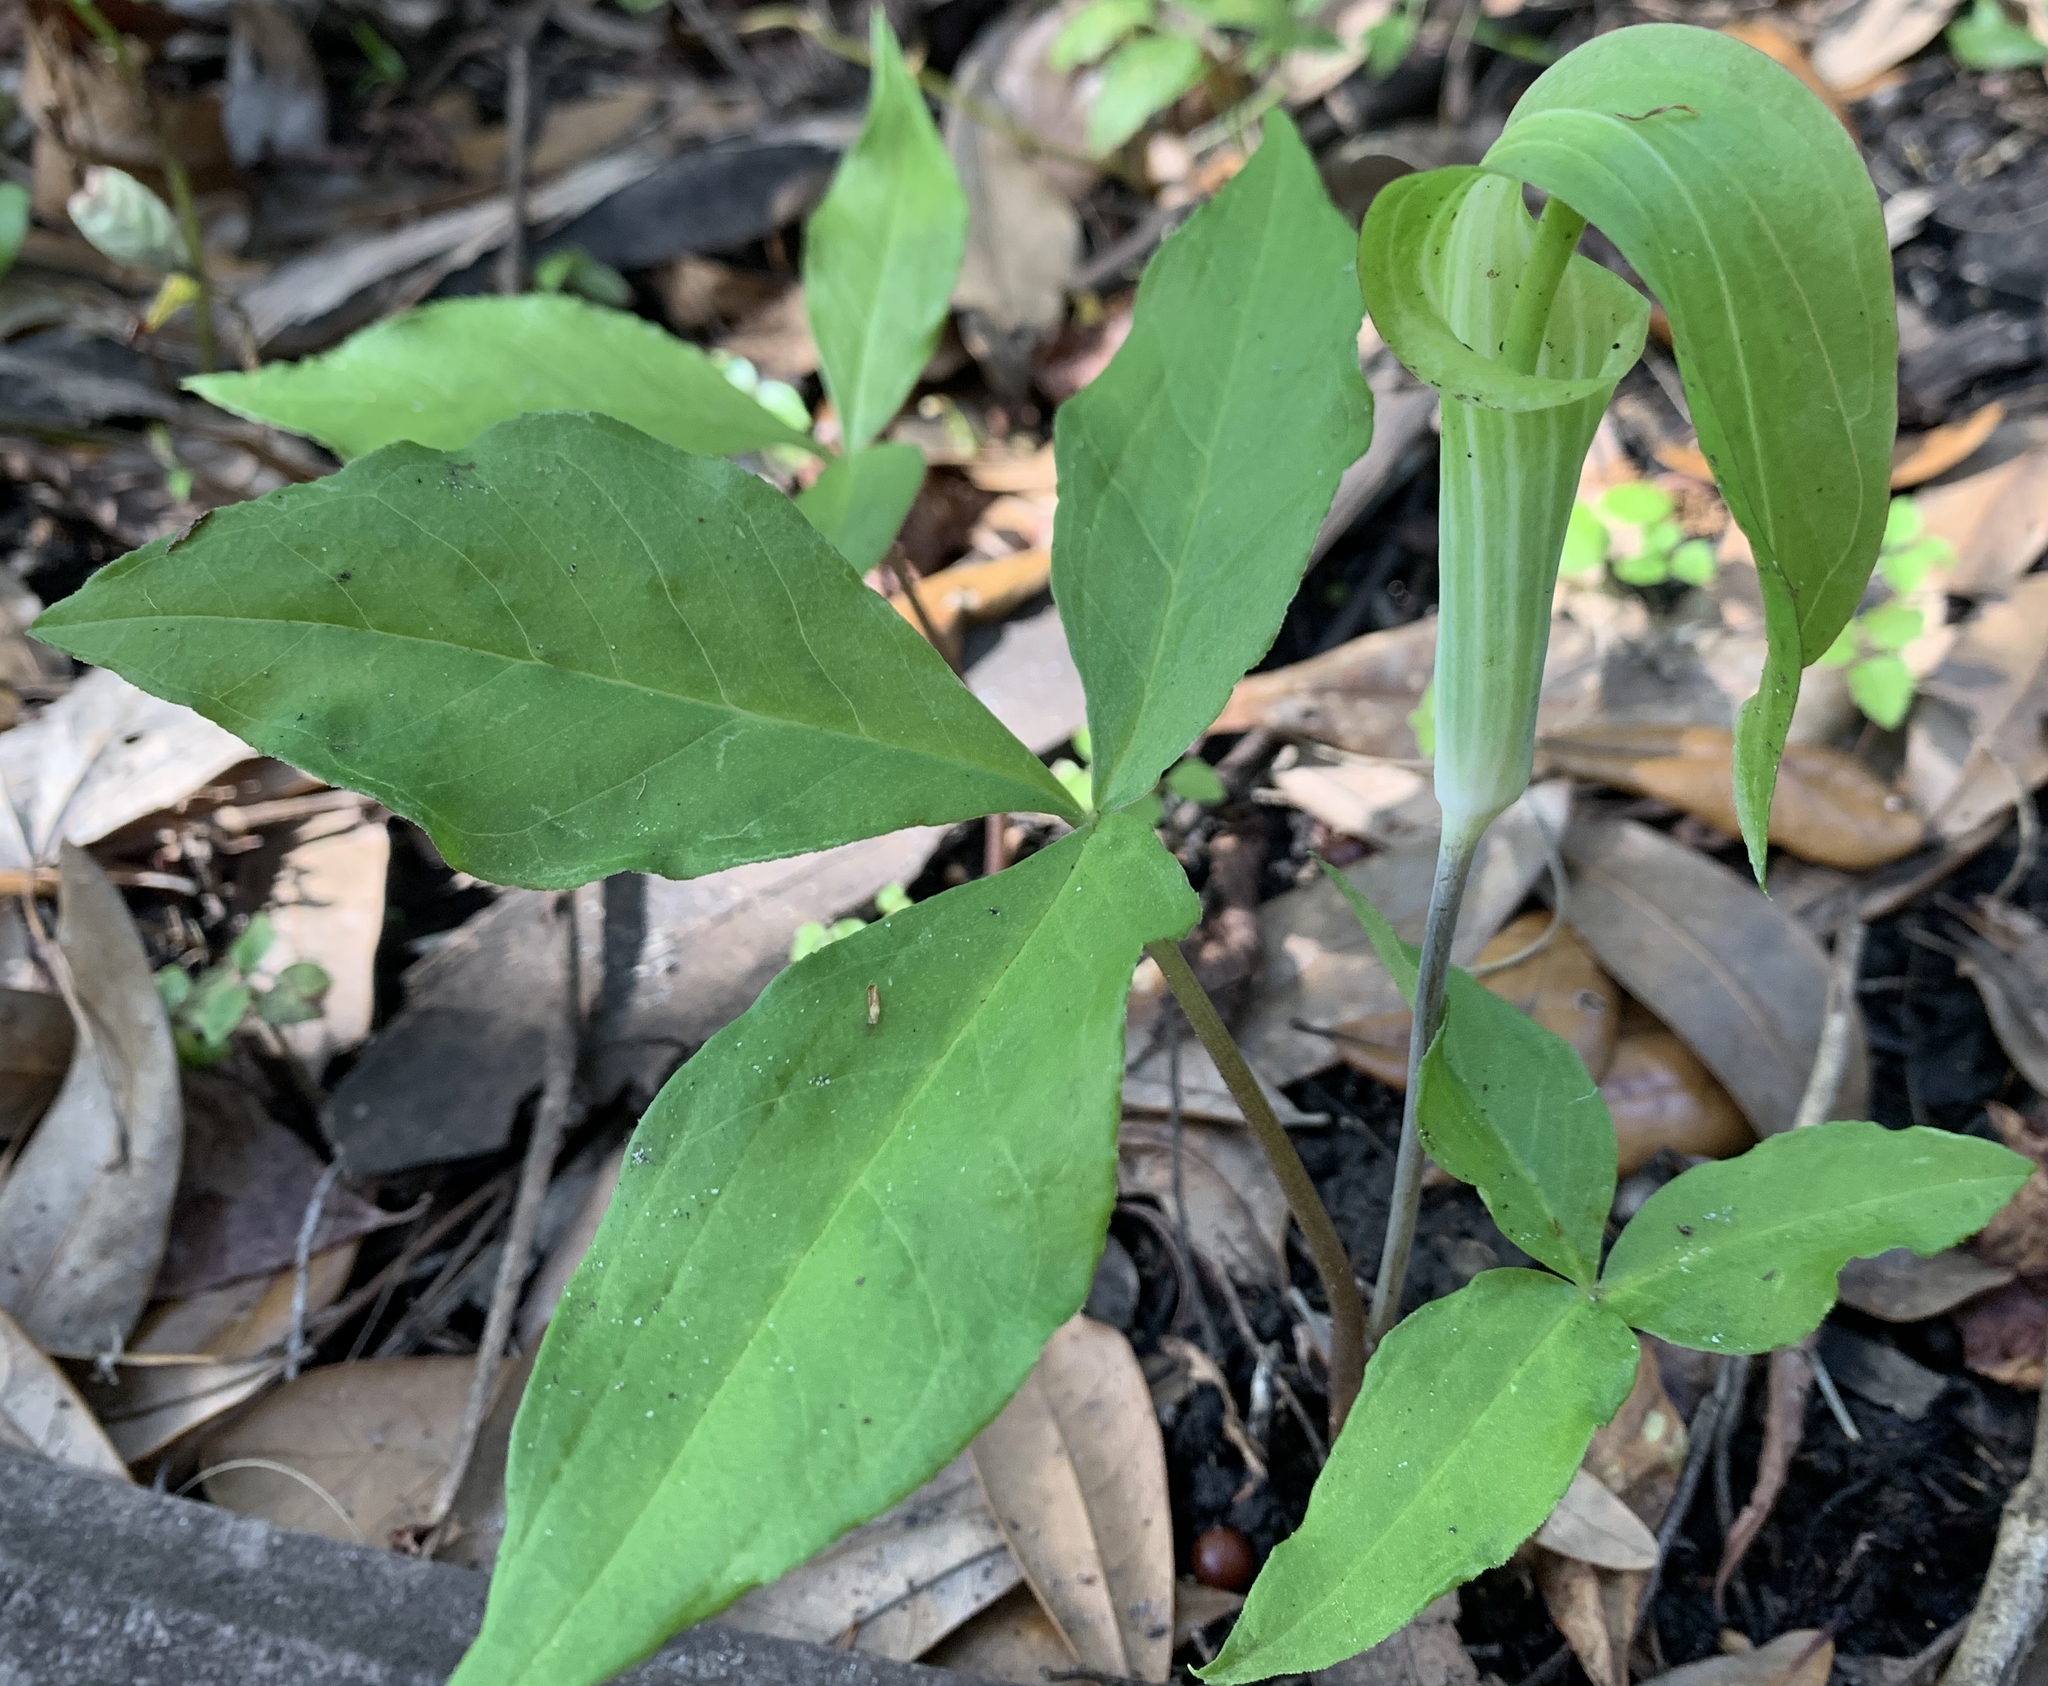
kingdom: Plantae
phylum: Tracheophyta
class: Liliopsida
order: Alismatales
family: Araceae
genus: Arisaema
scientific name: Arisaema acuminatum
